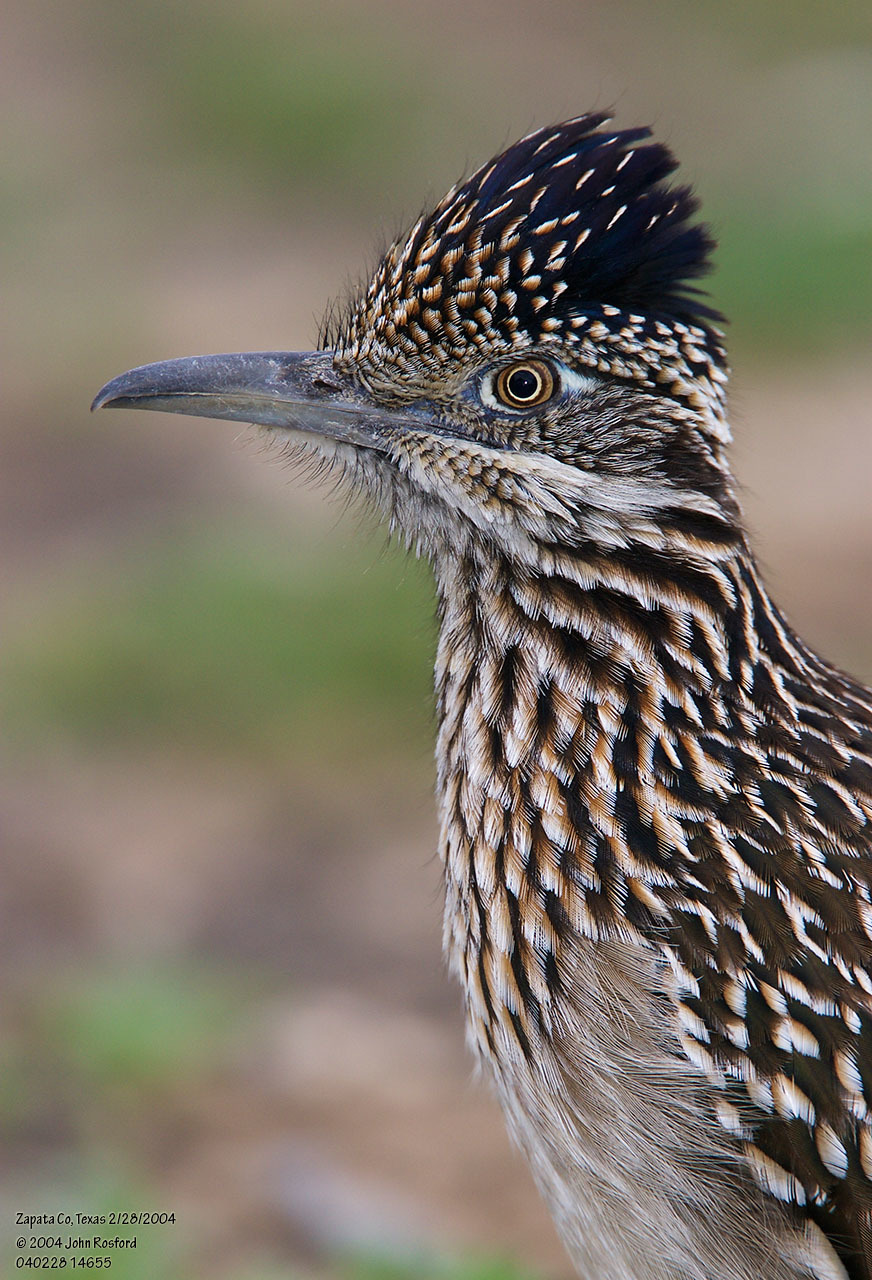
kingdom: Animalia
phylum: Chordata
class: Aves
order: Cuculiformes
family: Cuculidae
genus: Geococcyx
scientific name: Geococcyx californianus
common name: Greater roadrunner
